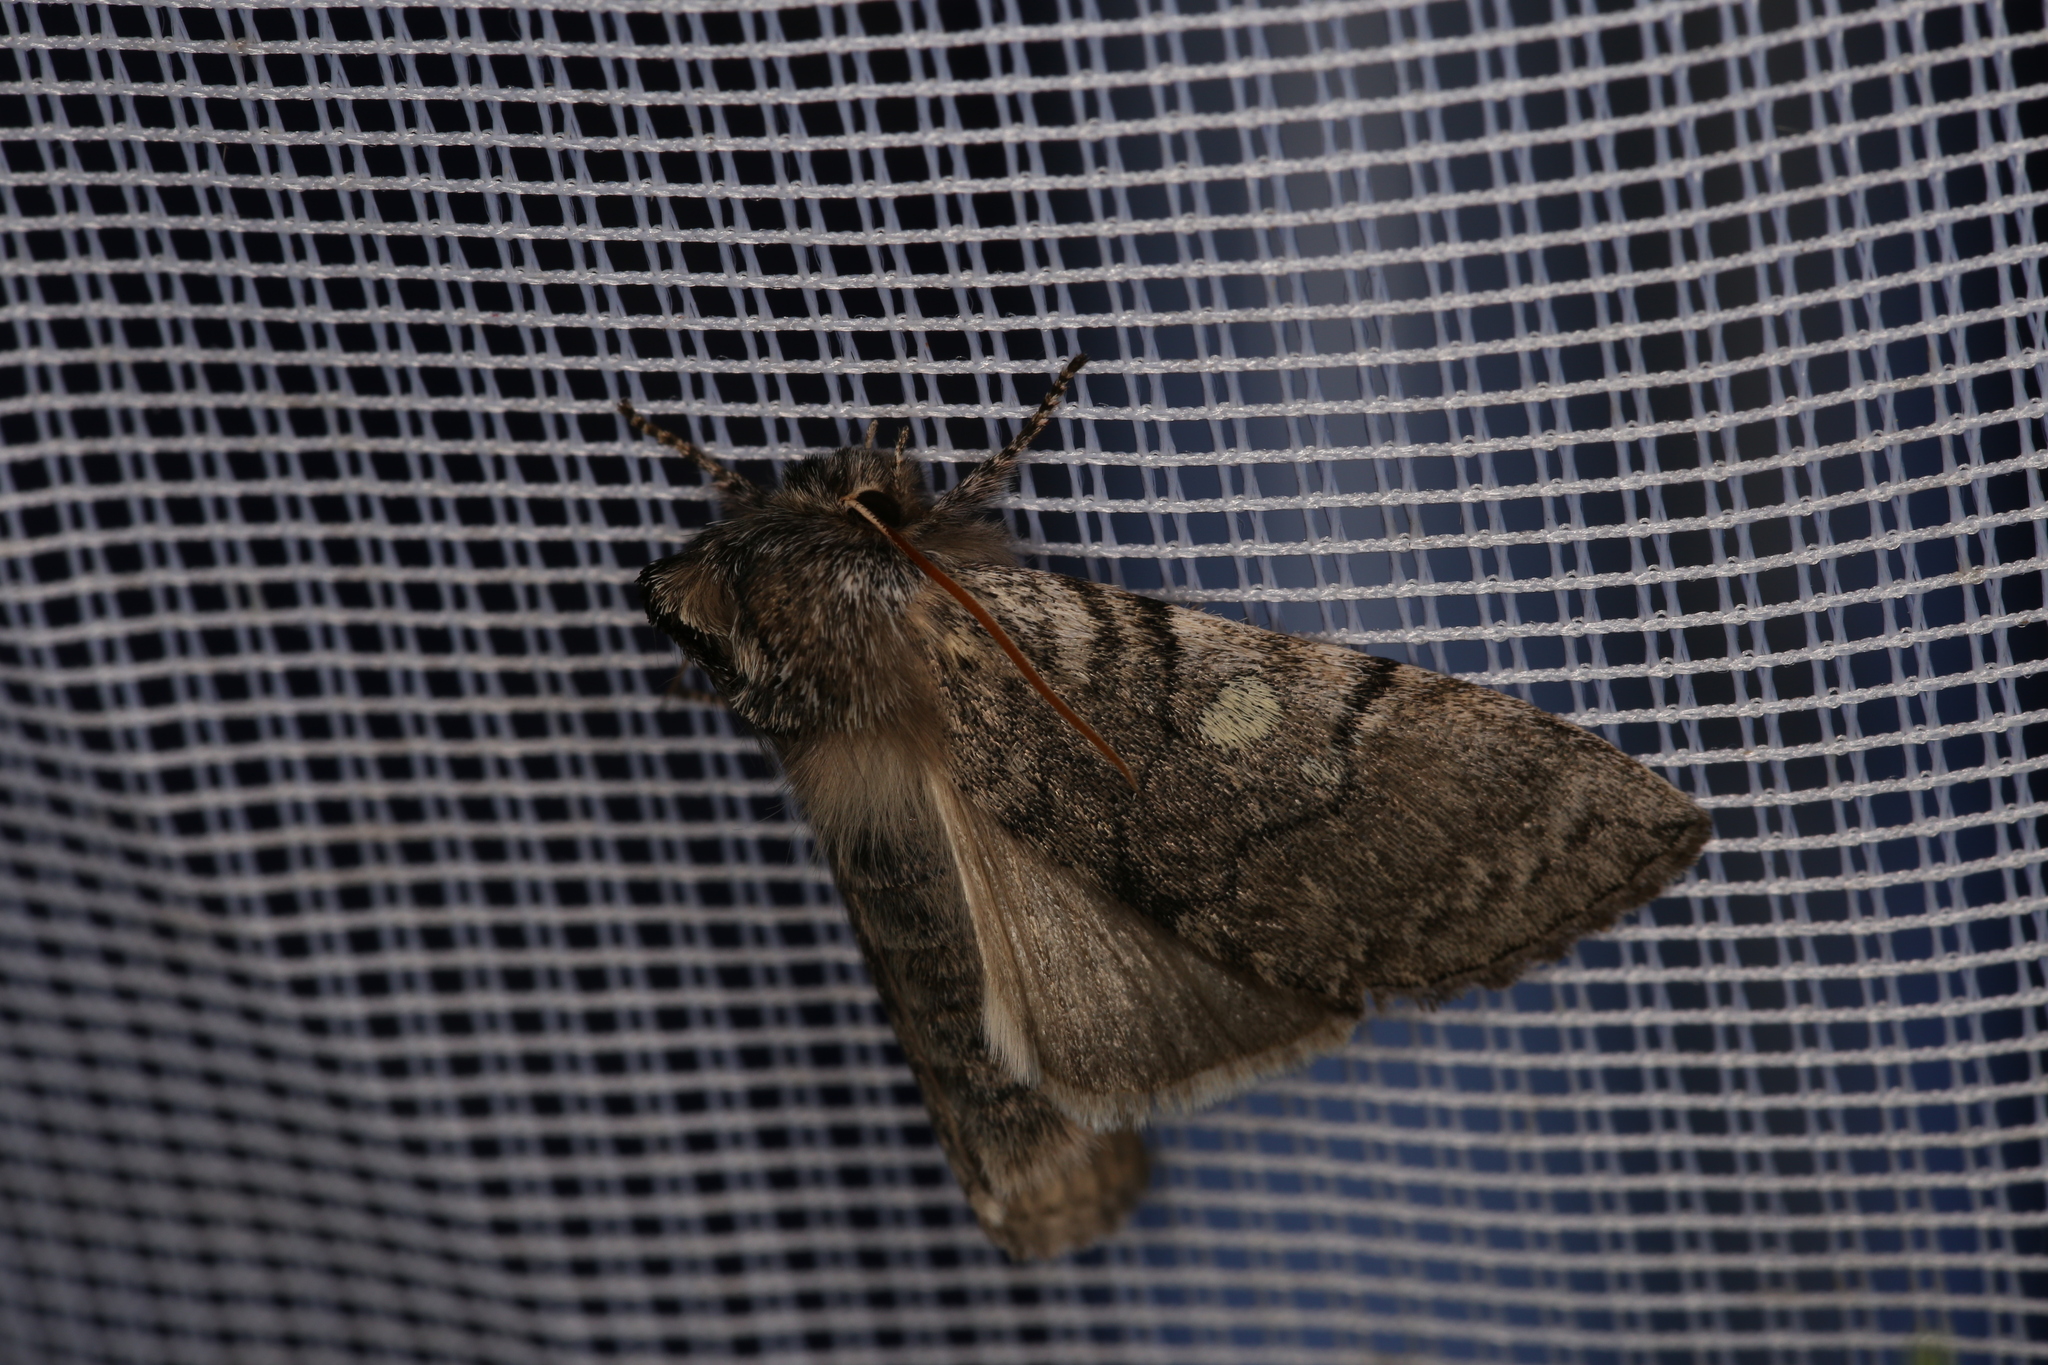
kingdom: Animalia
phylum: Arthropoda
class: Insecta
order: Lepidoptera
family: Drepanidae
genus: Achlya
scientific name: Achlya flavicornis
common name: Yellow horned
